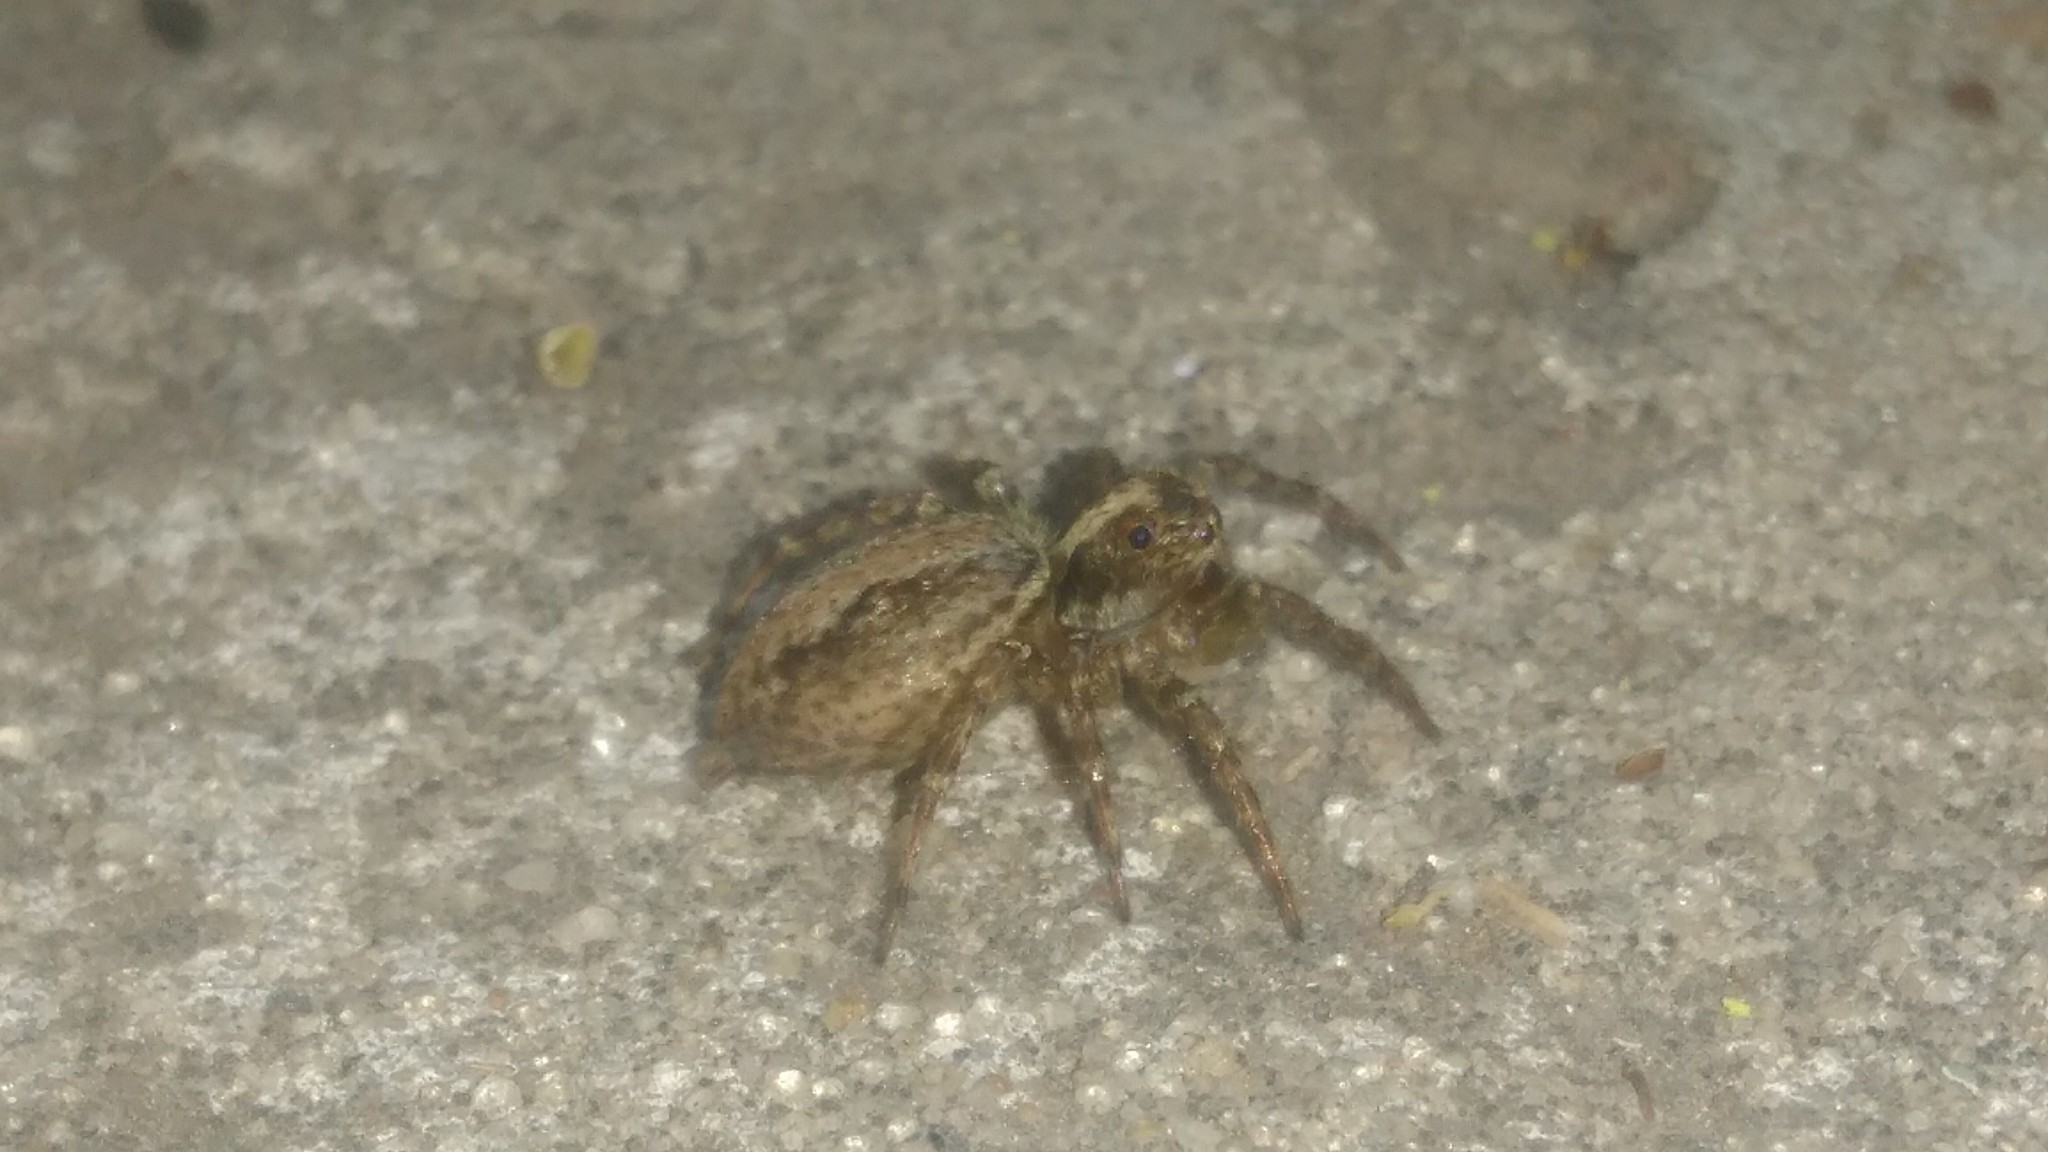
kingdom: Animalia
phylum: Arthropoda
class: Arachnida
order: Araneae
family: Salticidae
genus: Asaphobelis
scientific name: Asaphobelis physonychus
